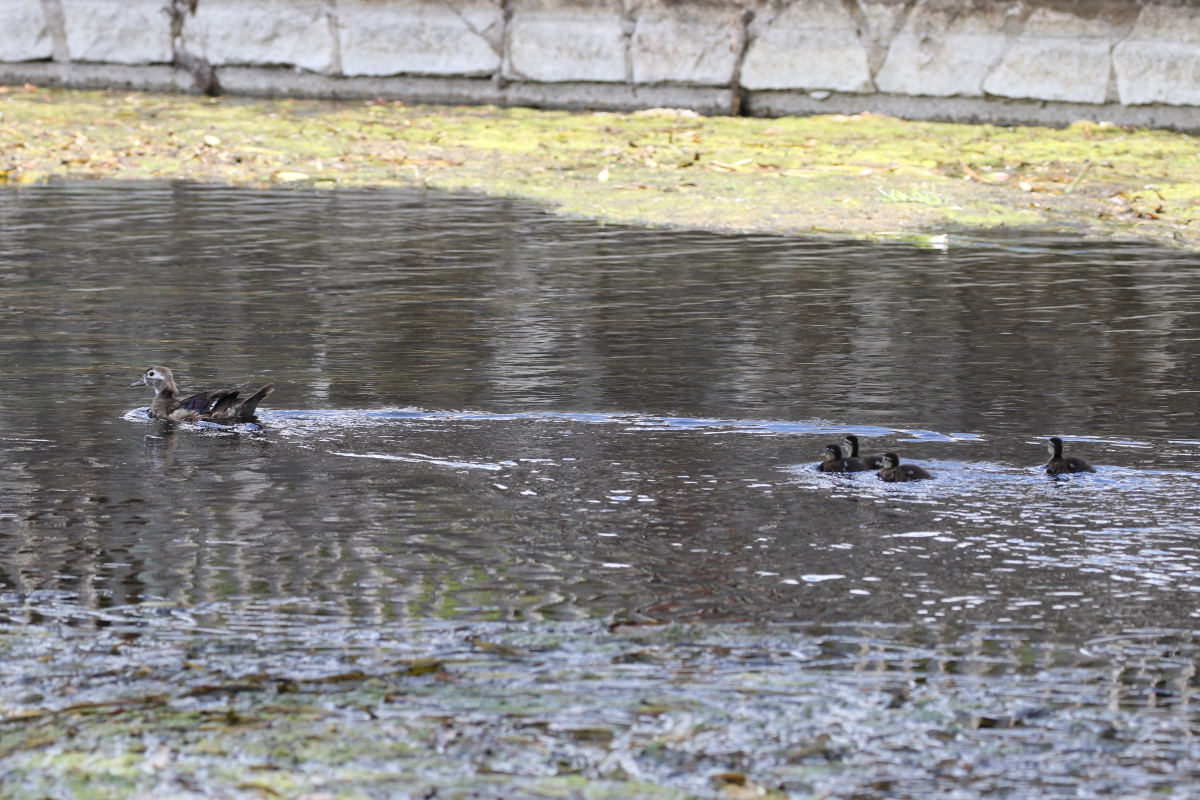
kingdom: Animalia
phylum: Chordata
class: Aves
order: Anseriformes
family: Anatidae
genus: Aix
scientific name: Aix sponsa
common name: Wood duck
